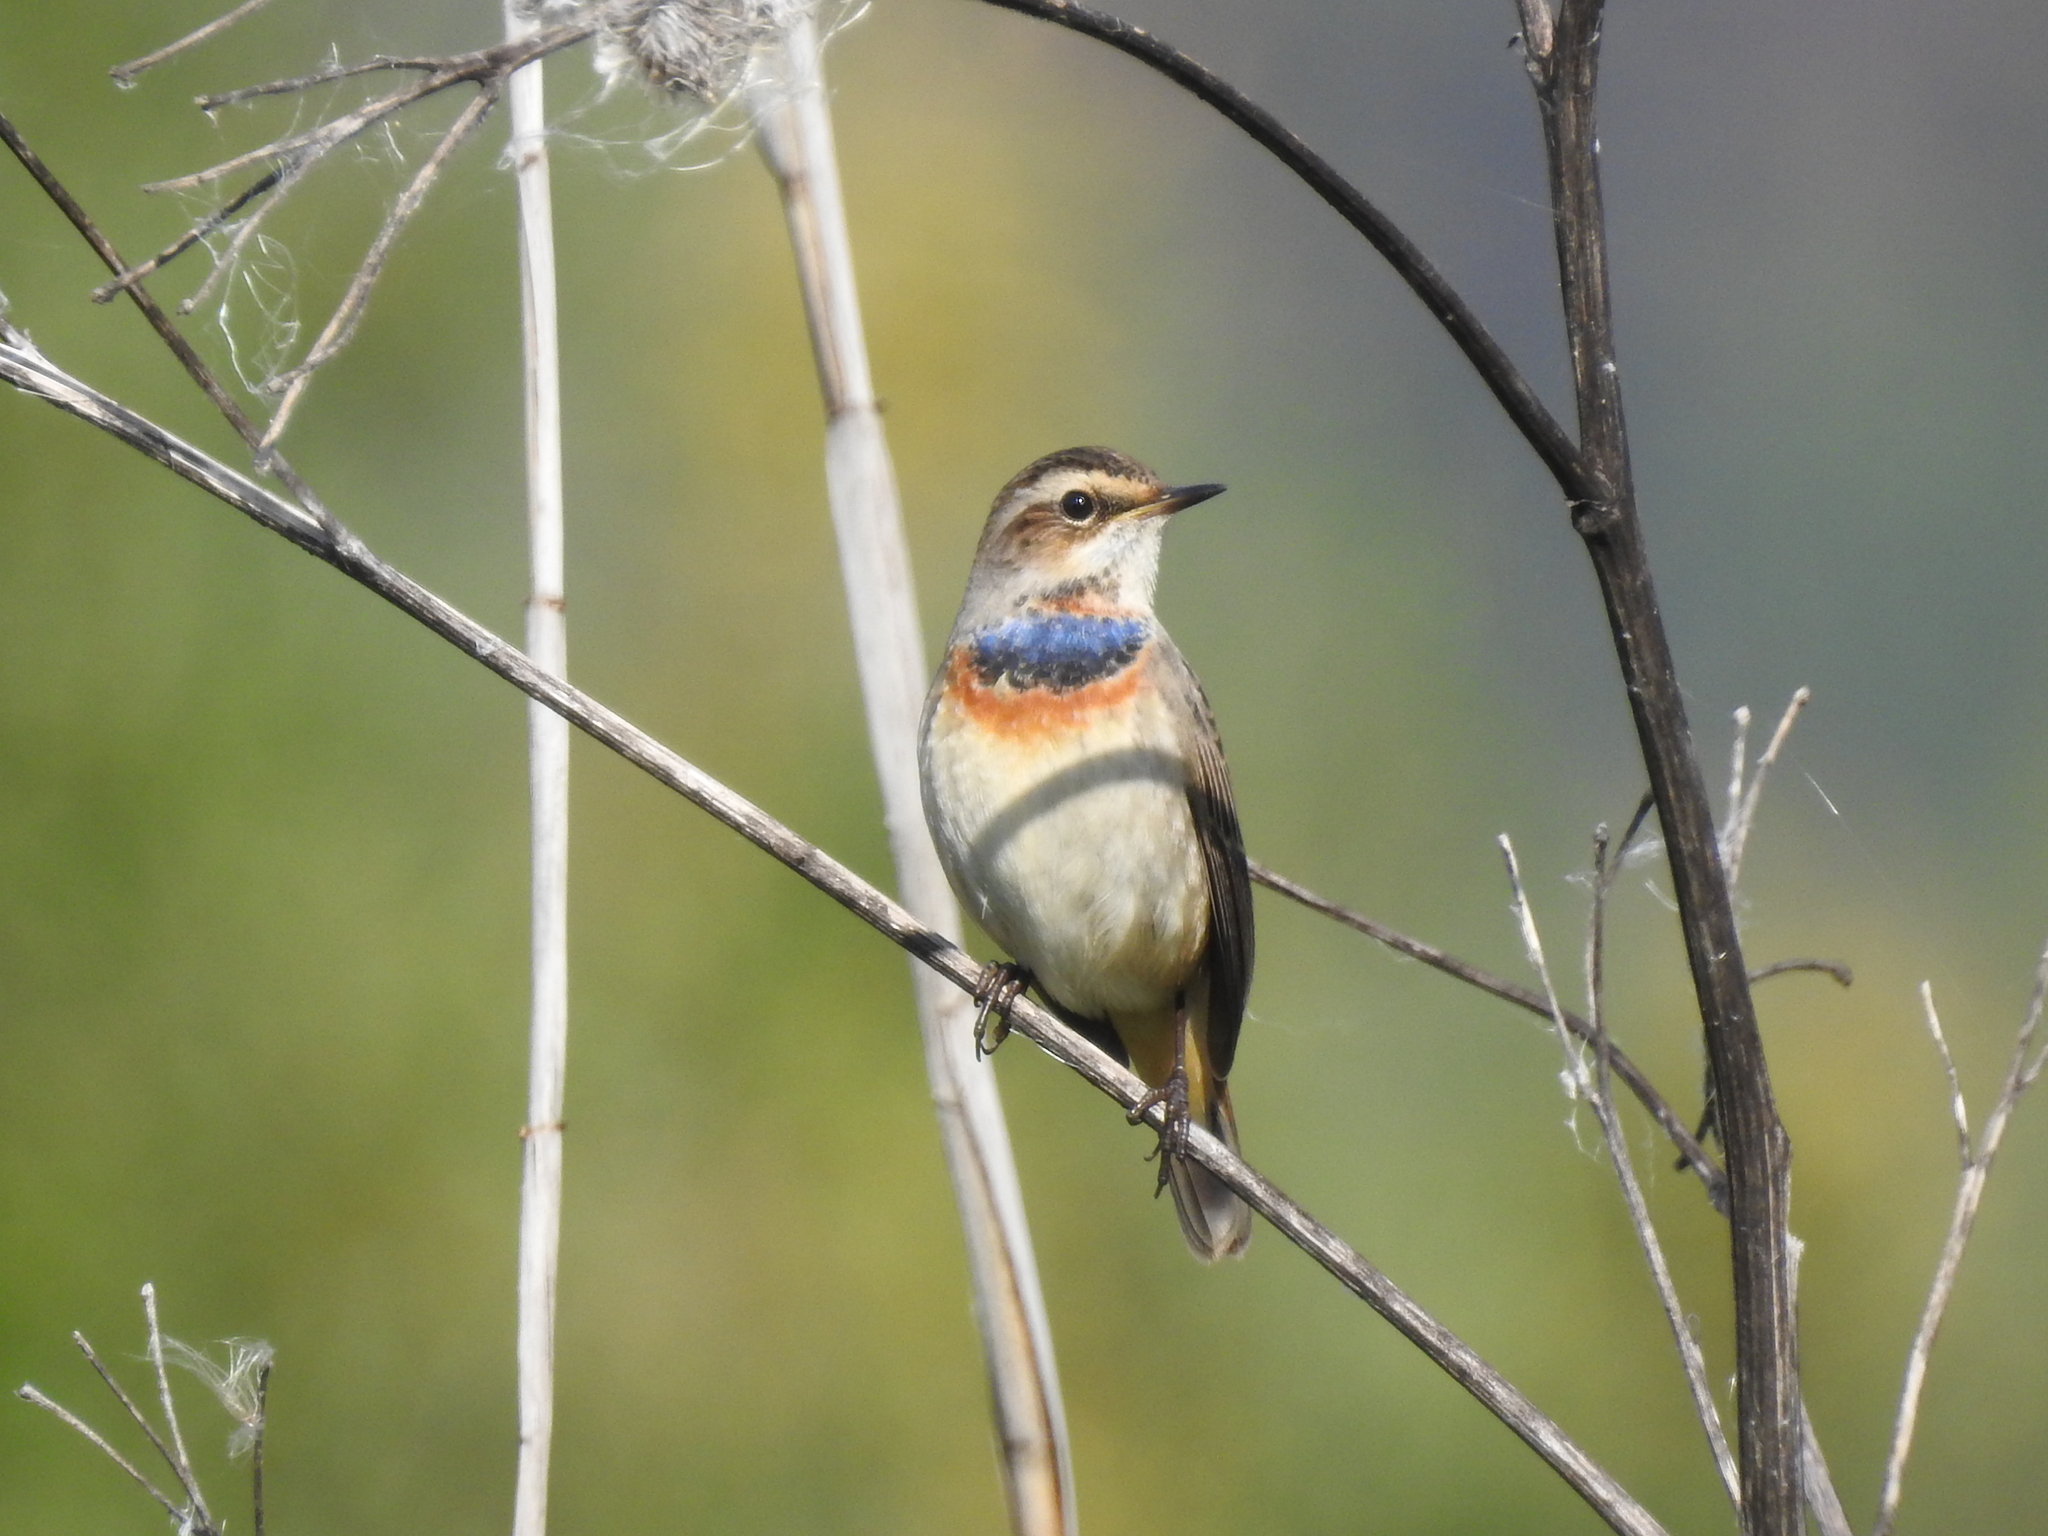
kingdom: Animalia
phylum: Chordata
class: Aves
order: Passeriformes
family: Muscicapidae
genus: Luscinia
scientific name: Luscinia svecica
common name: Bluethroat
